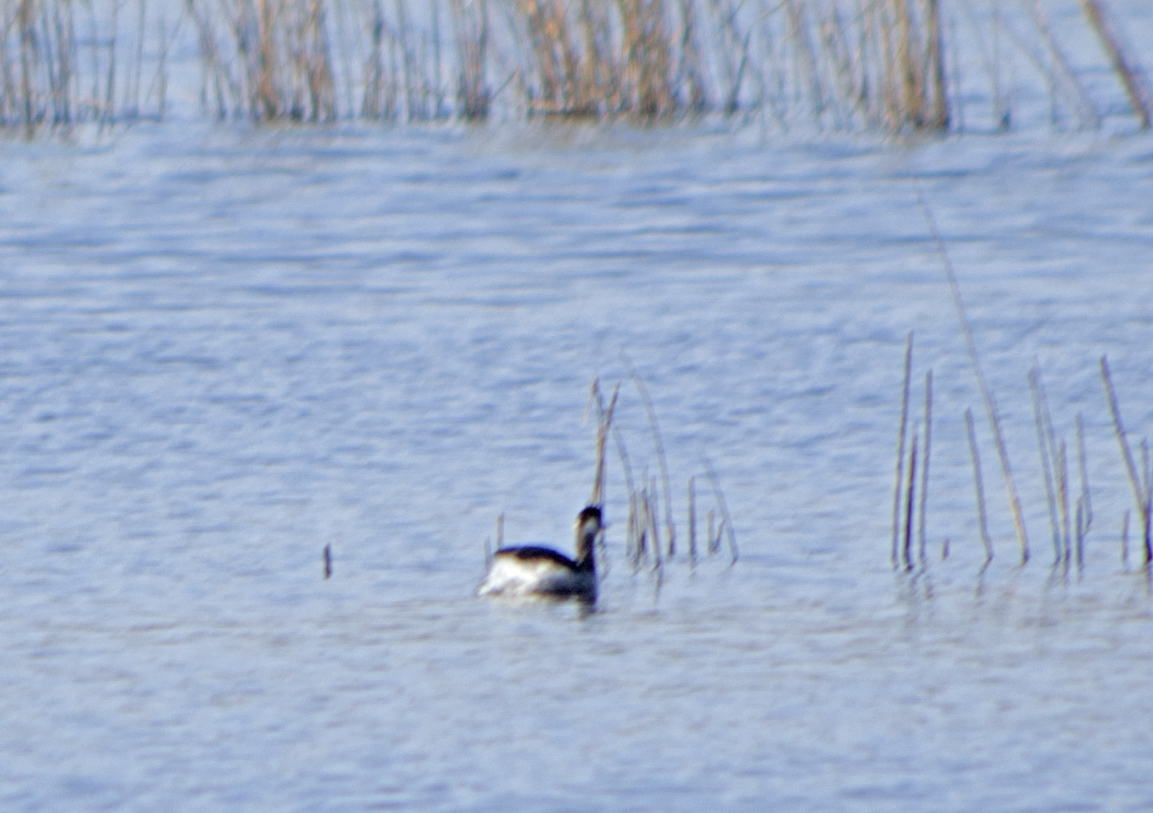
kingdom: Animalia
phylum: Chordata
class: Aves
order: Podicipediformes
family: Podicipedidae
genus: Podiceps
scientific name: Podiceps nigricollis
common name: Black-necked grebe
